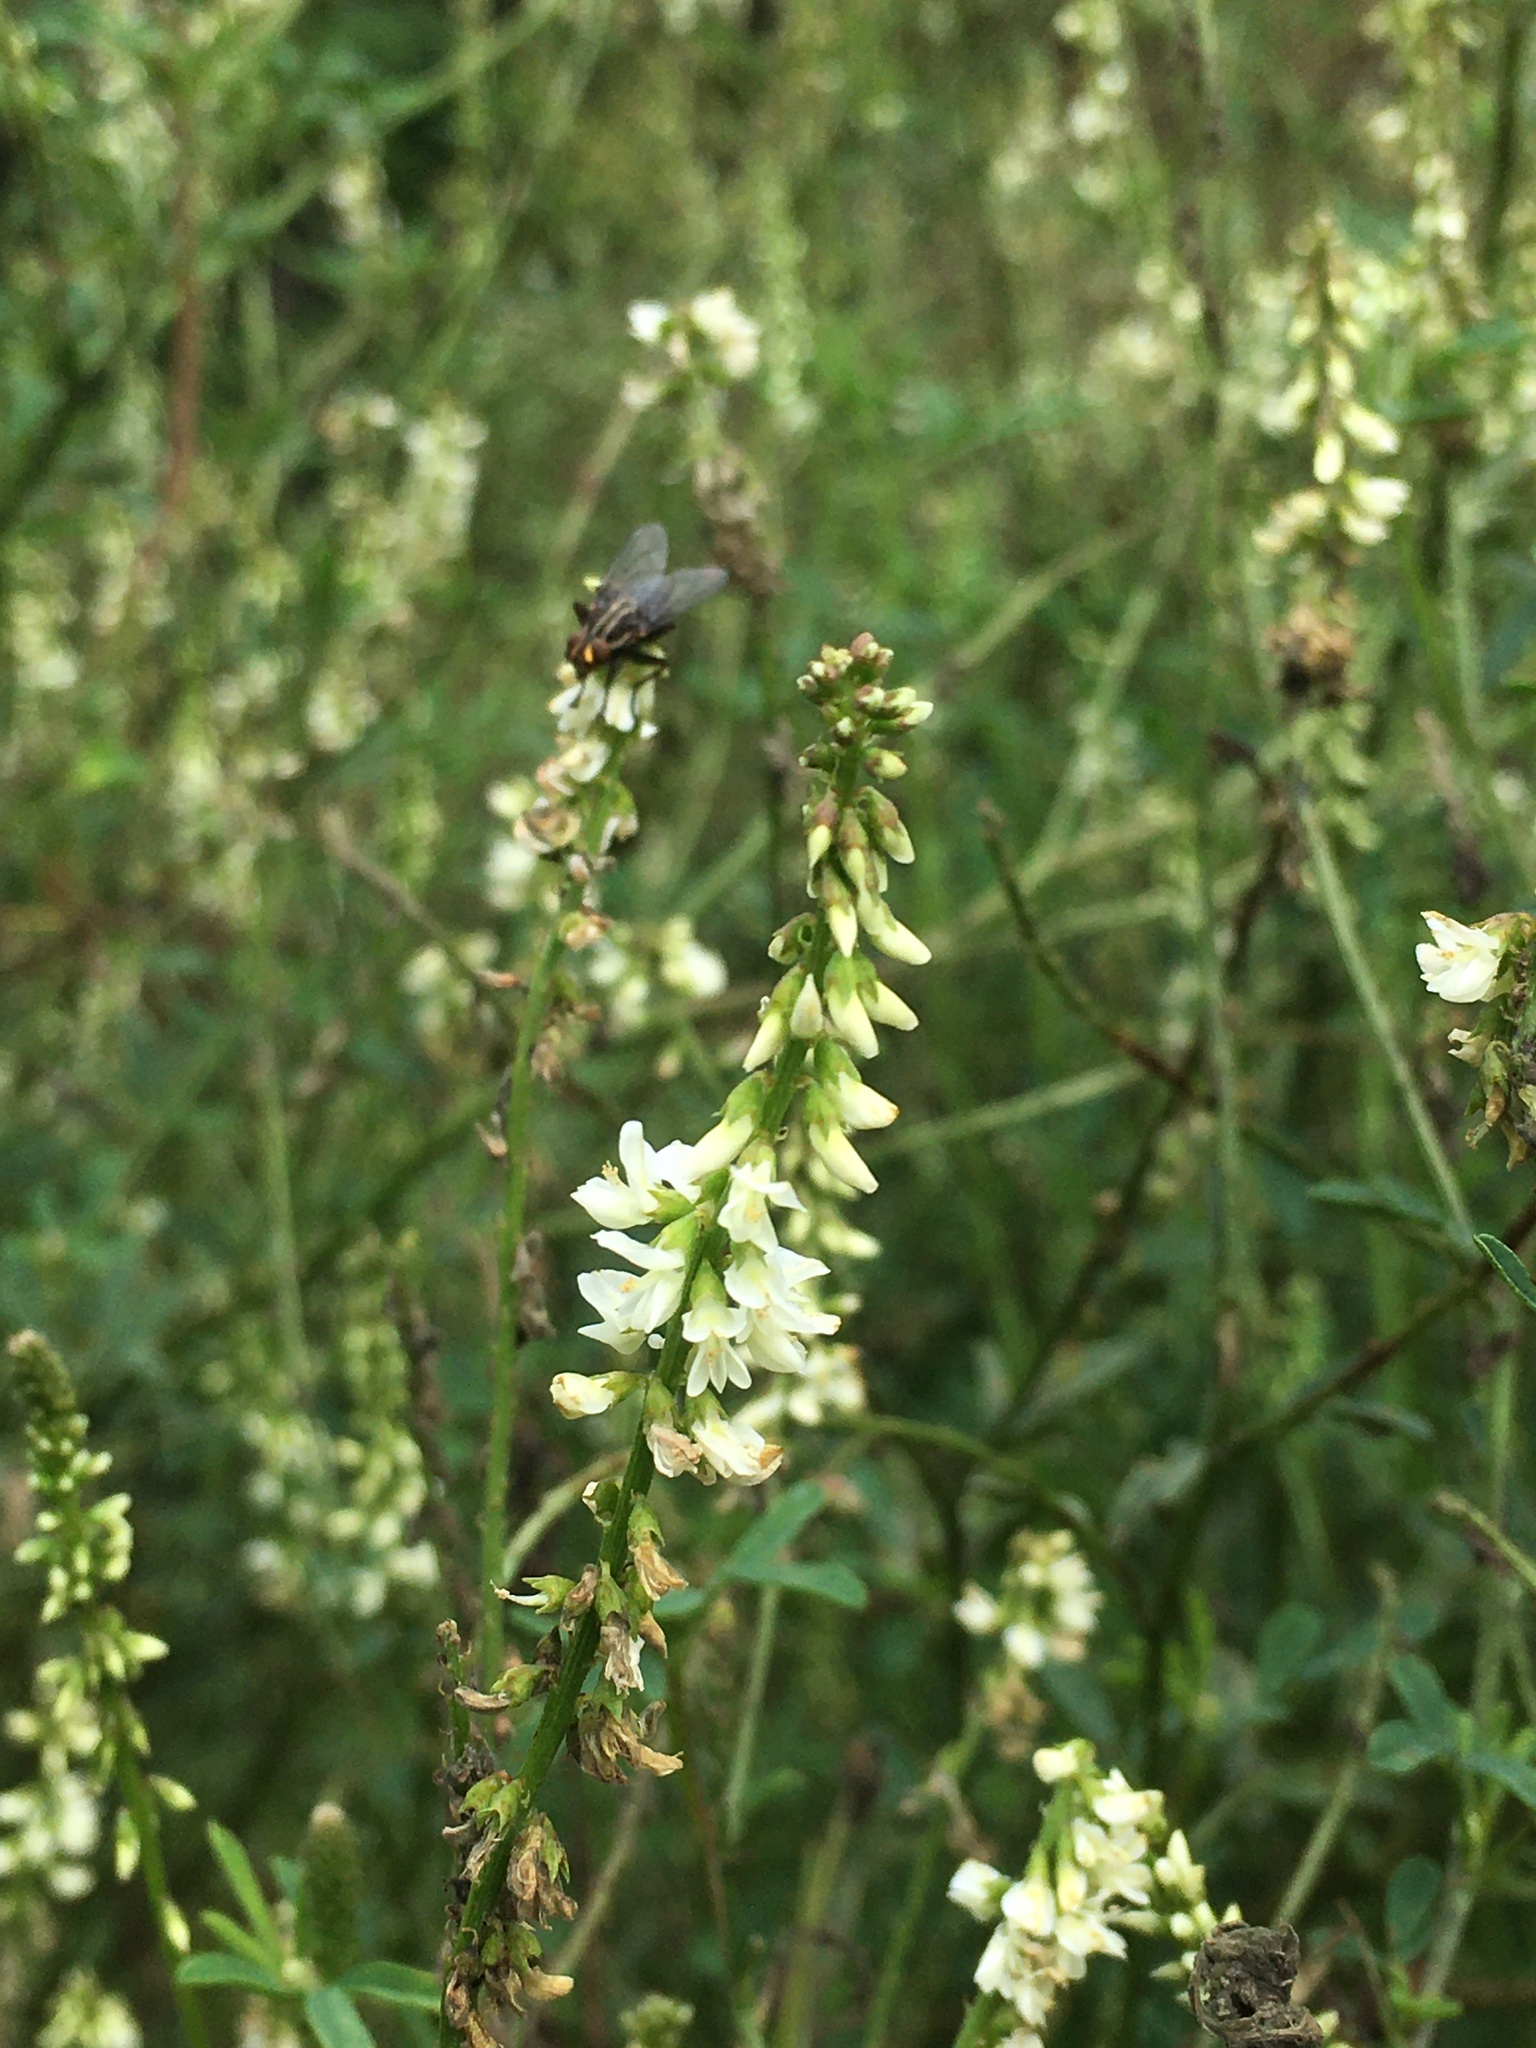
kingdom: Plantae
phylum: Tracheophyta
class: Magnoliopsida
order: Fabales
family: Fabaceae
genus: Melilotus
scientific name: Melilotus albus
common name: White melilot
